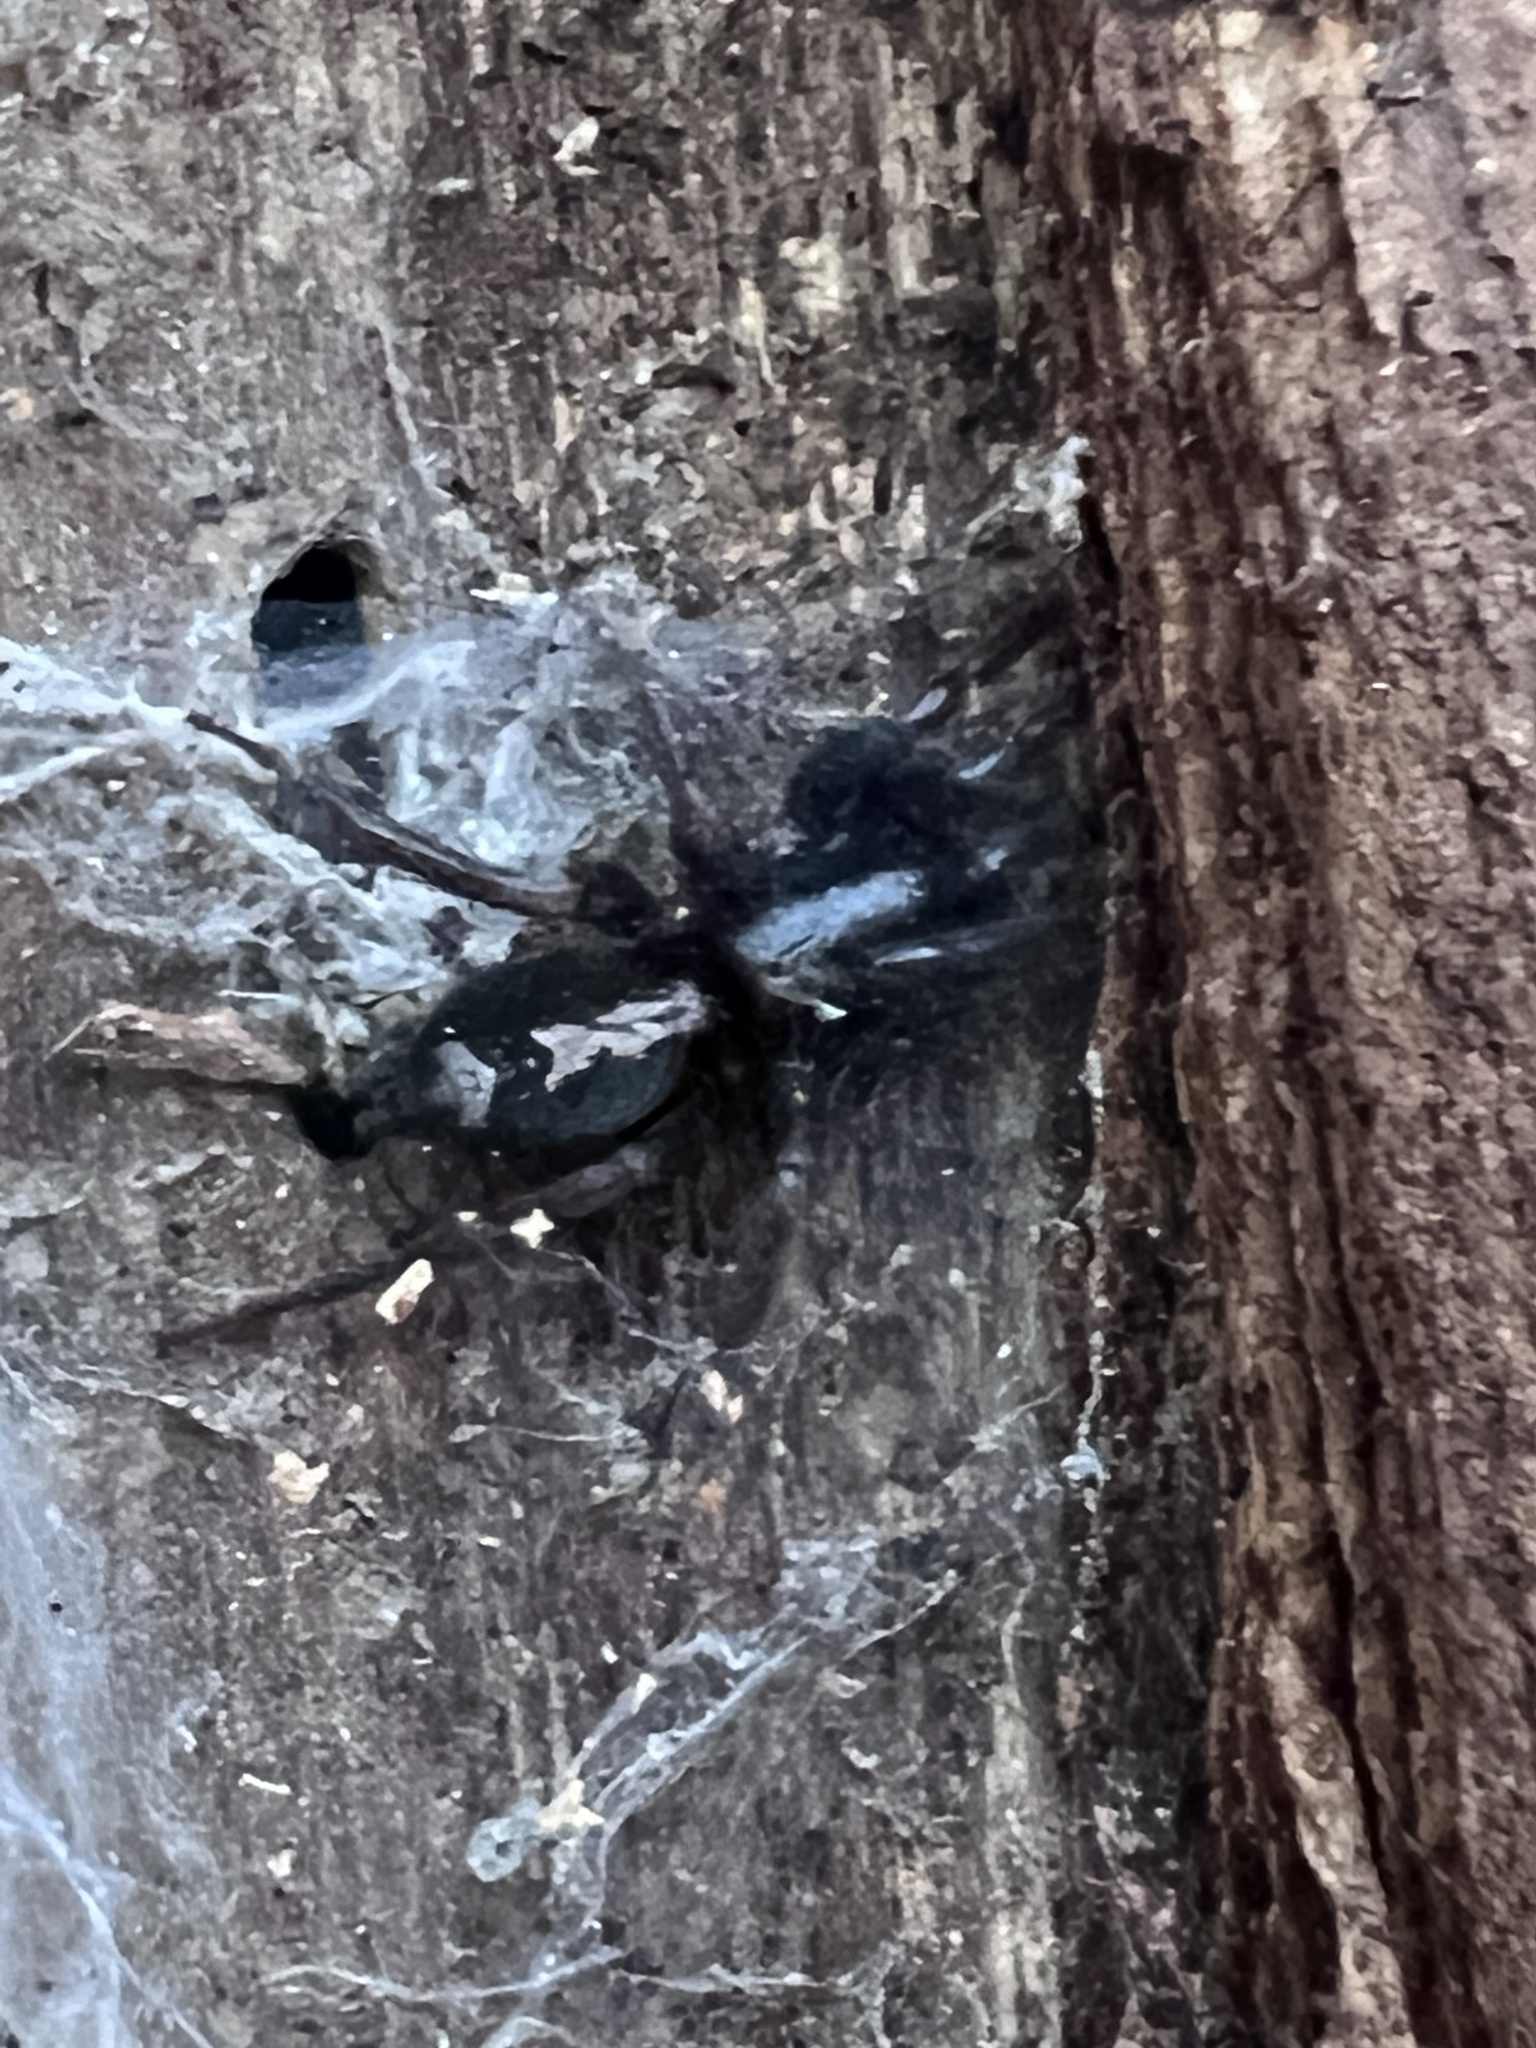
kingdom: Animalia
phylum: Arthropoda
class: Arachnida
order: Araneae
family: Gnaphosidae
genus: Herpyllus
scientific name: Herpyllus ecclesiasticus
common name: Eastern parson spider
